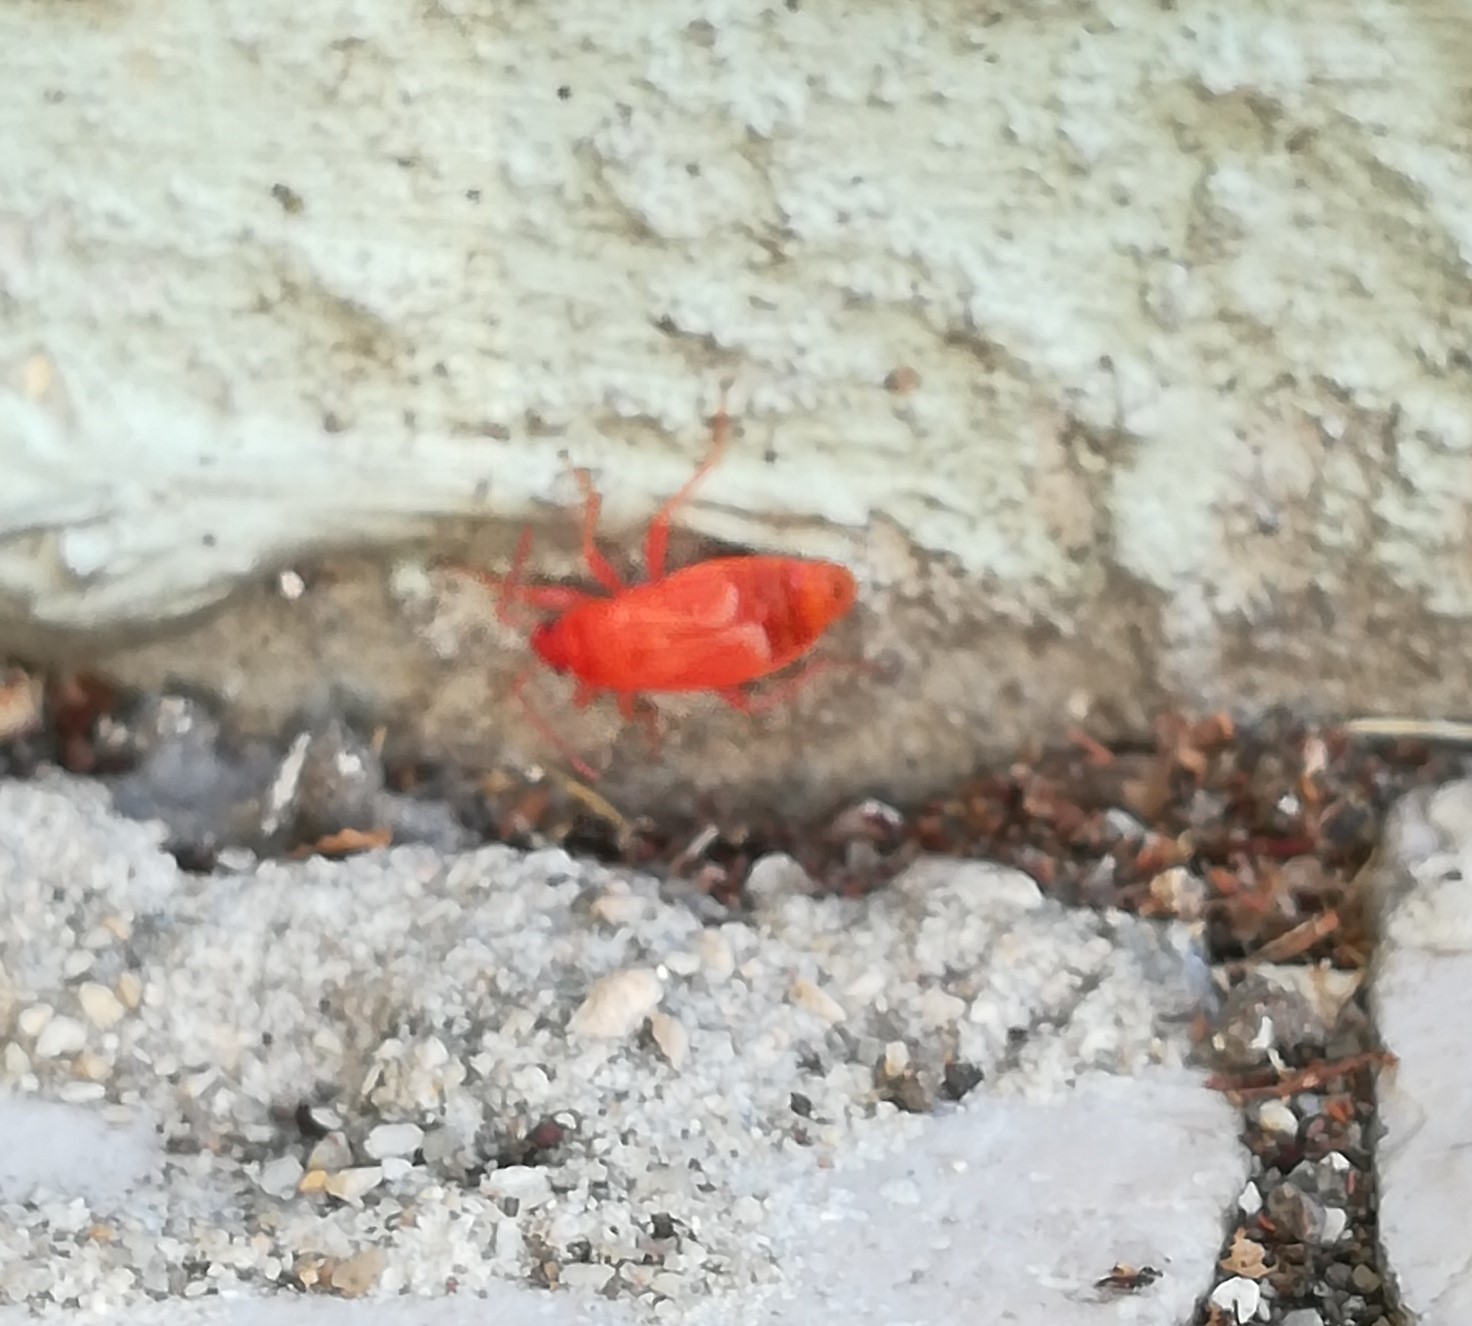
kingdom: Animalia
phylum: Arthropoda
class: Insecta
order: Hemiptera
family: Pyrrhocoridae
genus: Pyrrhocoris
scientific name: Pyrrhocoris apterus
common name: Firebug
